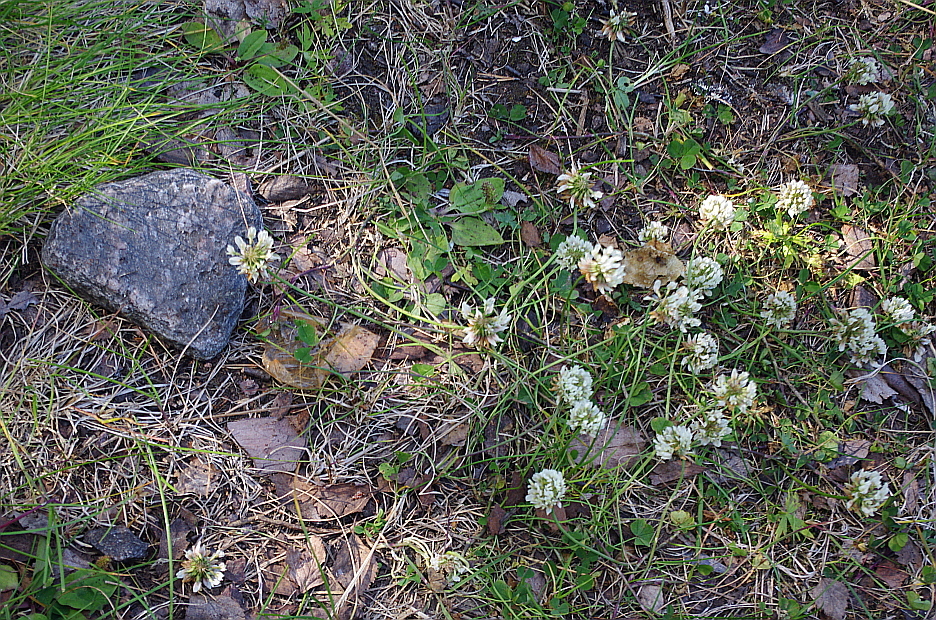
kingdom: Plantae
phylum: Tracheophyta
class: Magnoliopsida
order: Fabales
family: Fabaceae
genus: Trifolium
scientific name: Trifolium repens
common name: White clover
